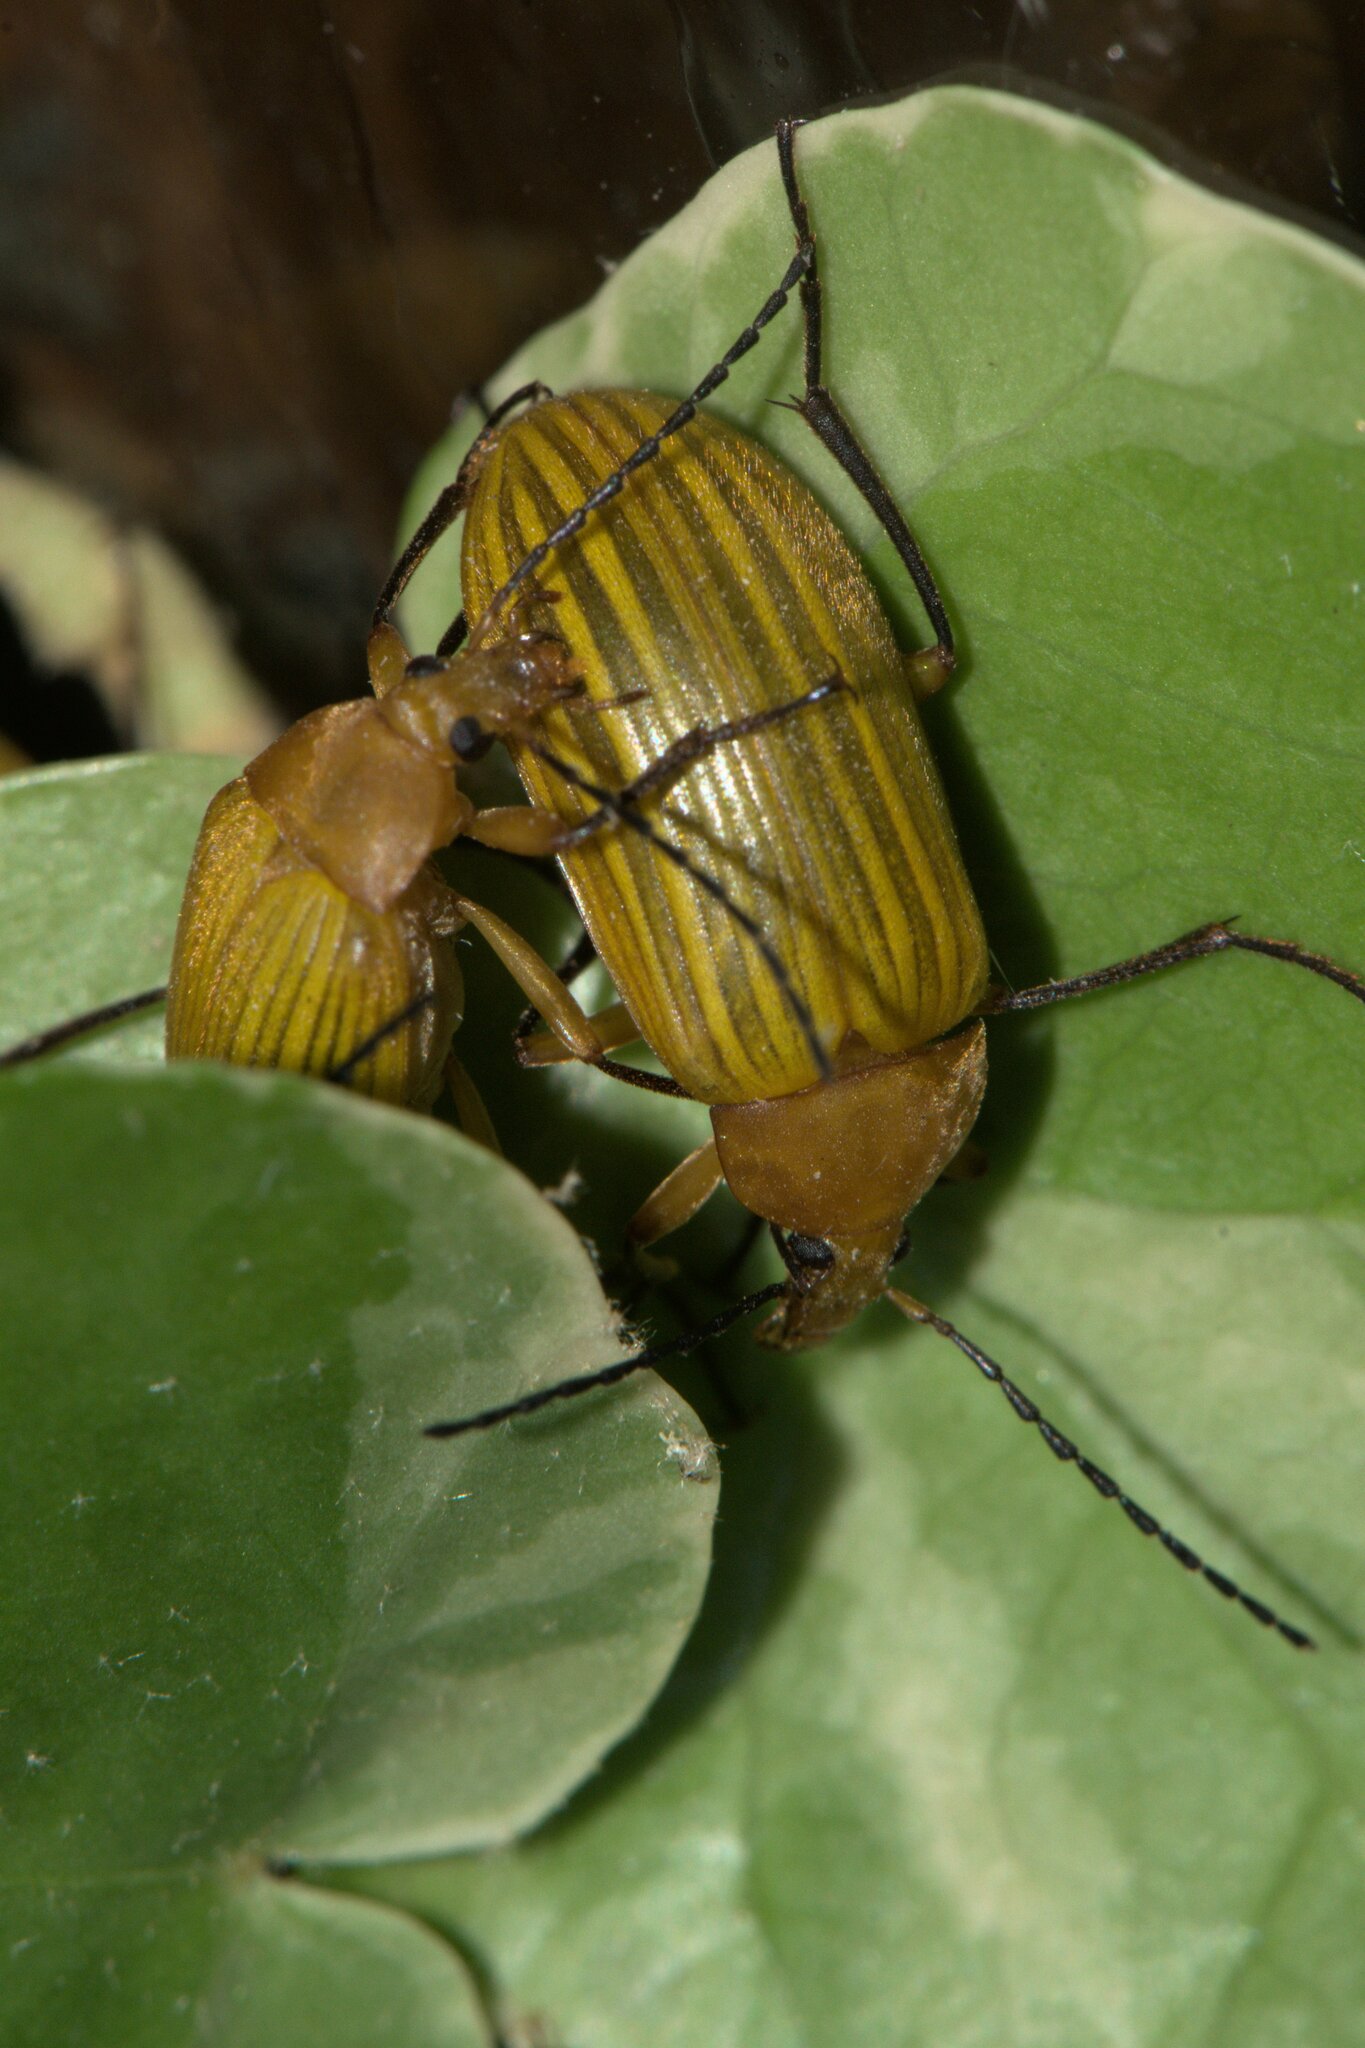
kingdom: Animalia
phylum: Arthropoda
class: Insecta
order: Coleoptera
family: Tenebrionidae
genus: Cistelomorpha
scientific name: Cistelomorpha
